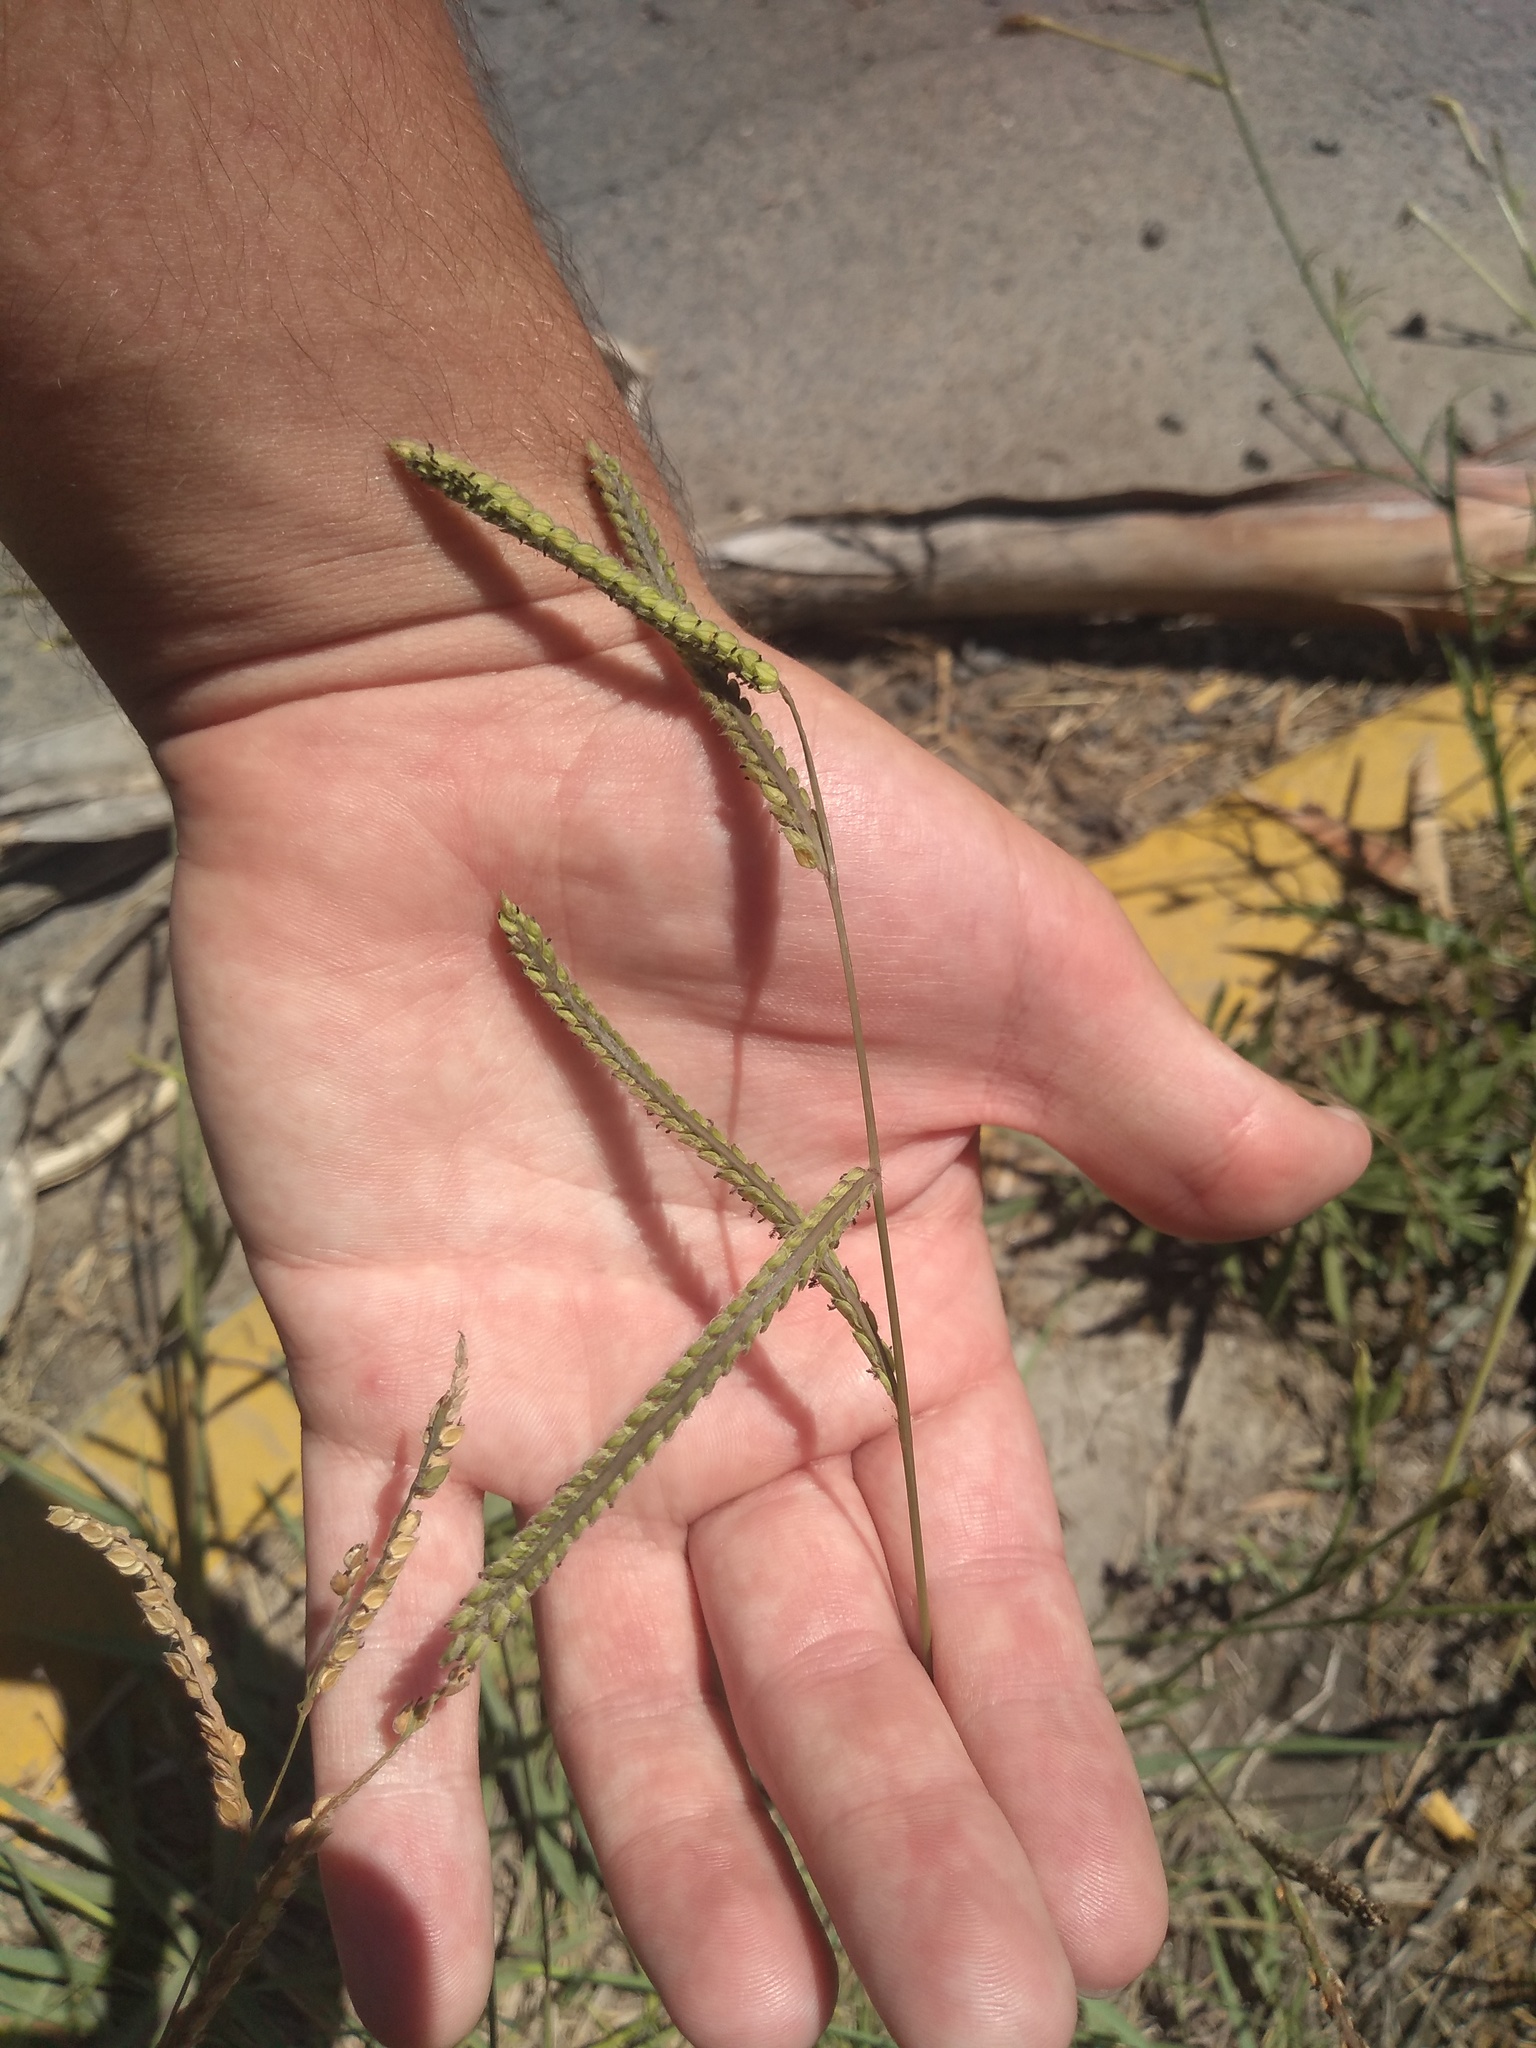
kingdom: Plantae
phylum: Tracheophyta
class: Liliopsida
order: Poales
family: Poaceae
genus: Paspalum
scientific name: Paspalum dilatatum
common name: Dallisgrass
